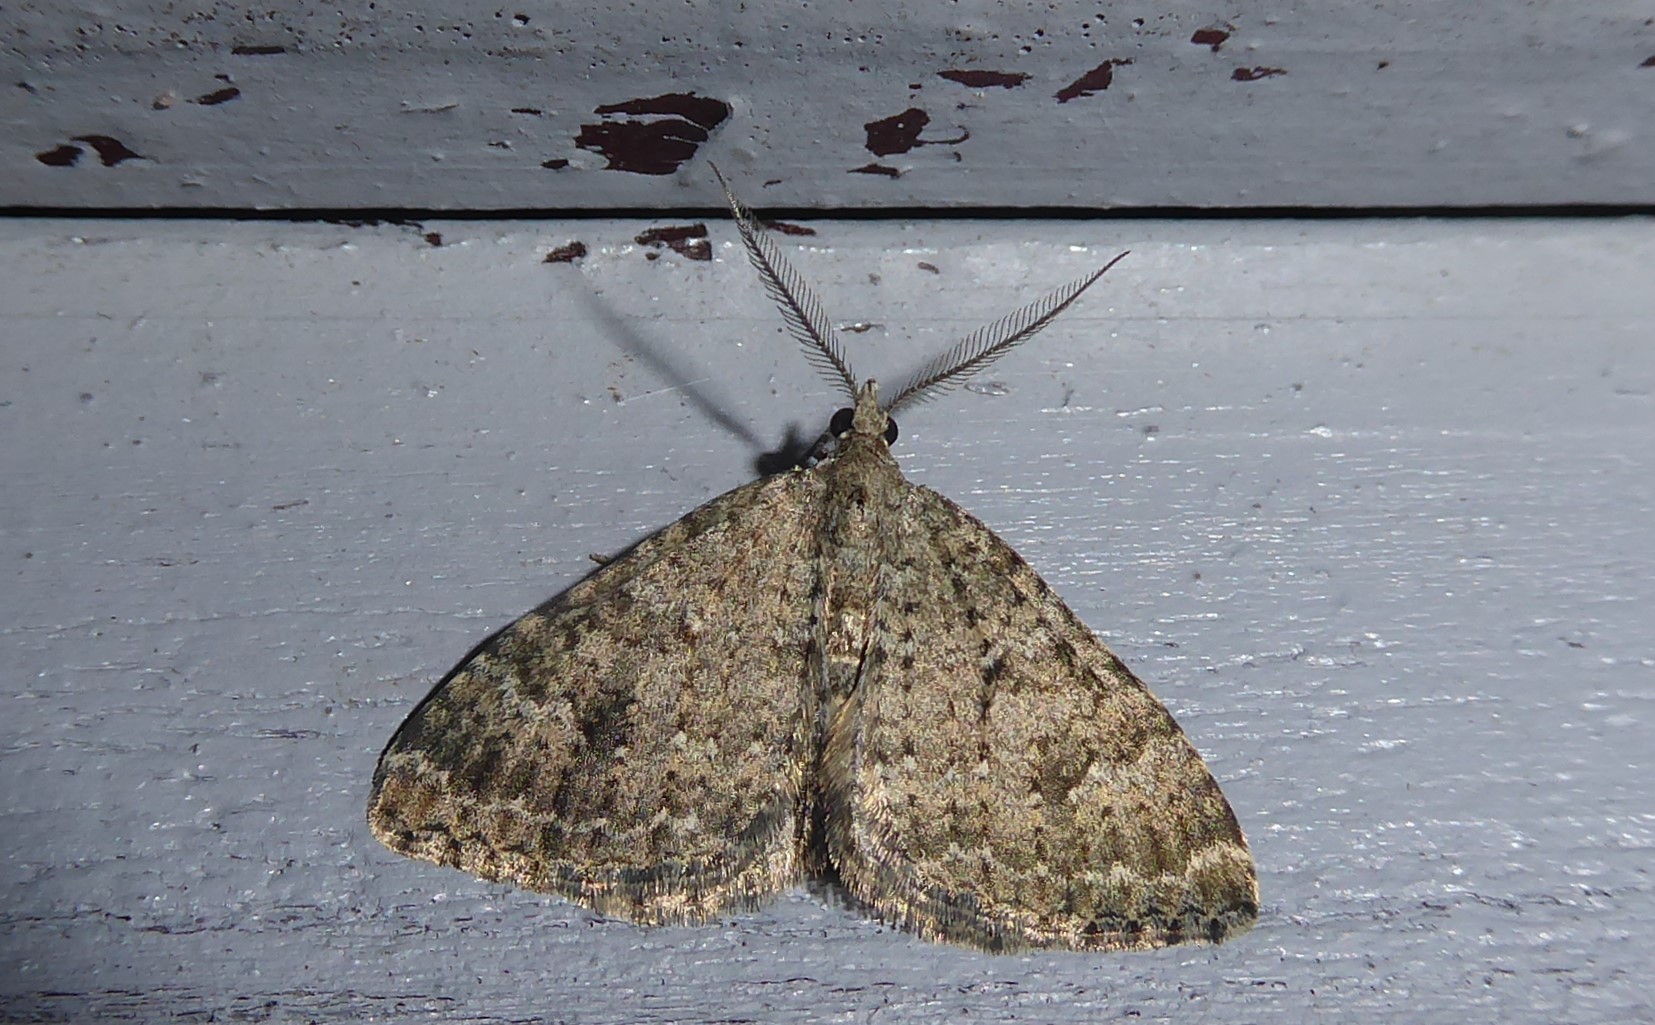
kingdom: Animalia
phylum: Arthropoda
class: Insecta
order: Lepidoptera
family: Geometridae
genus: Helastia
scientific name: Helastia corcularia
